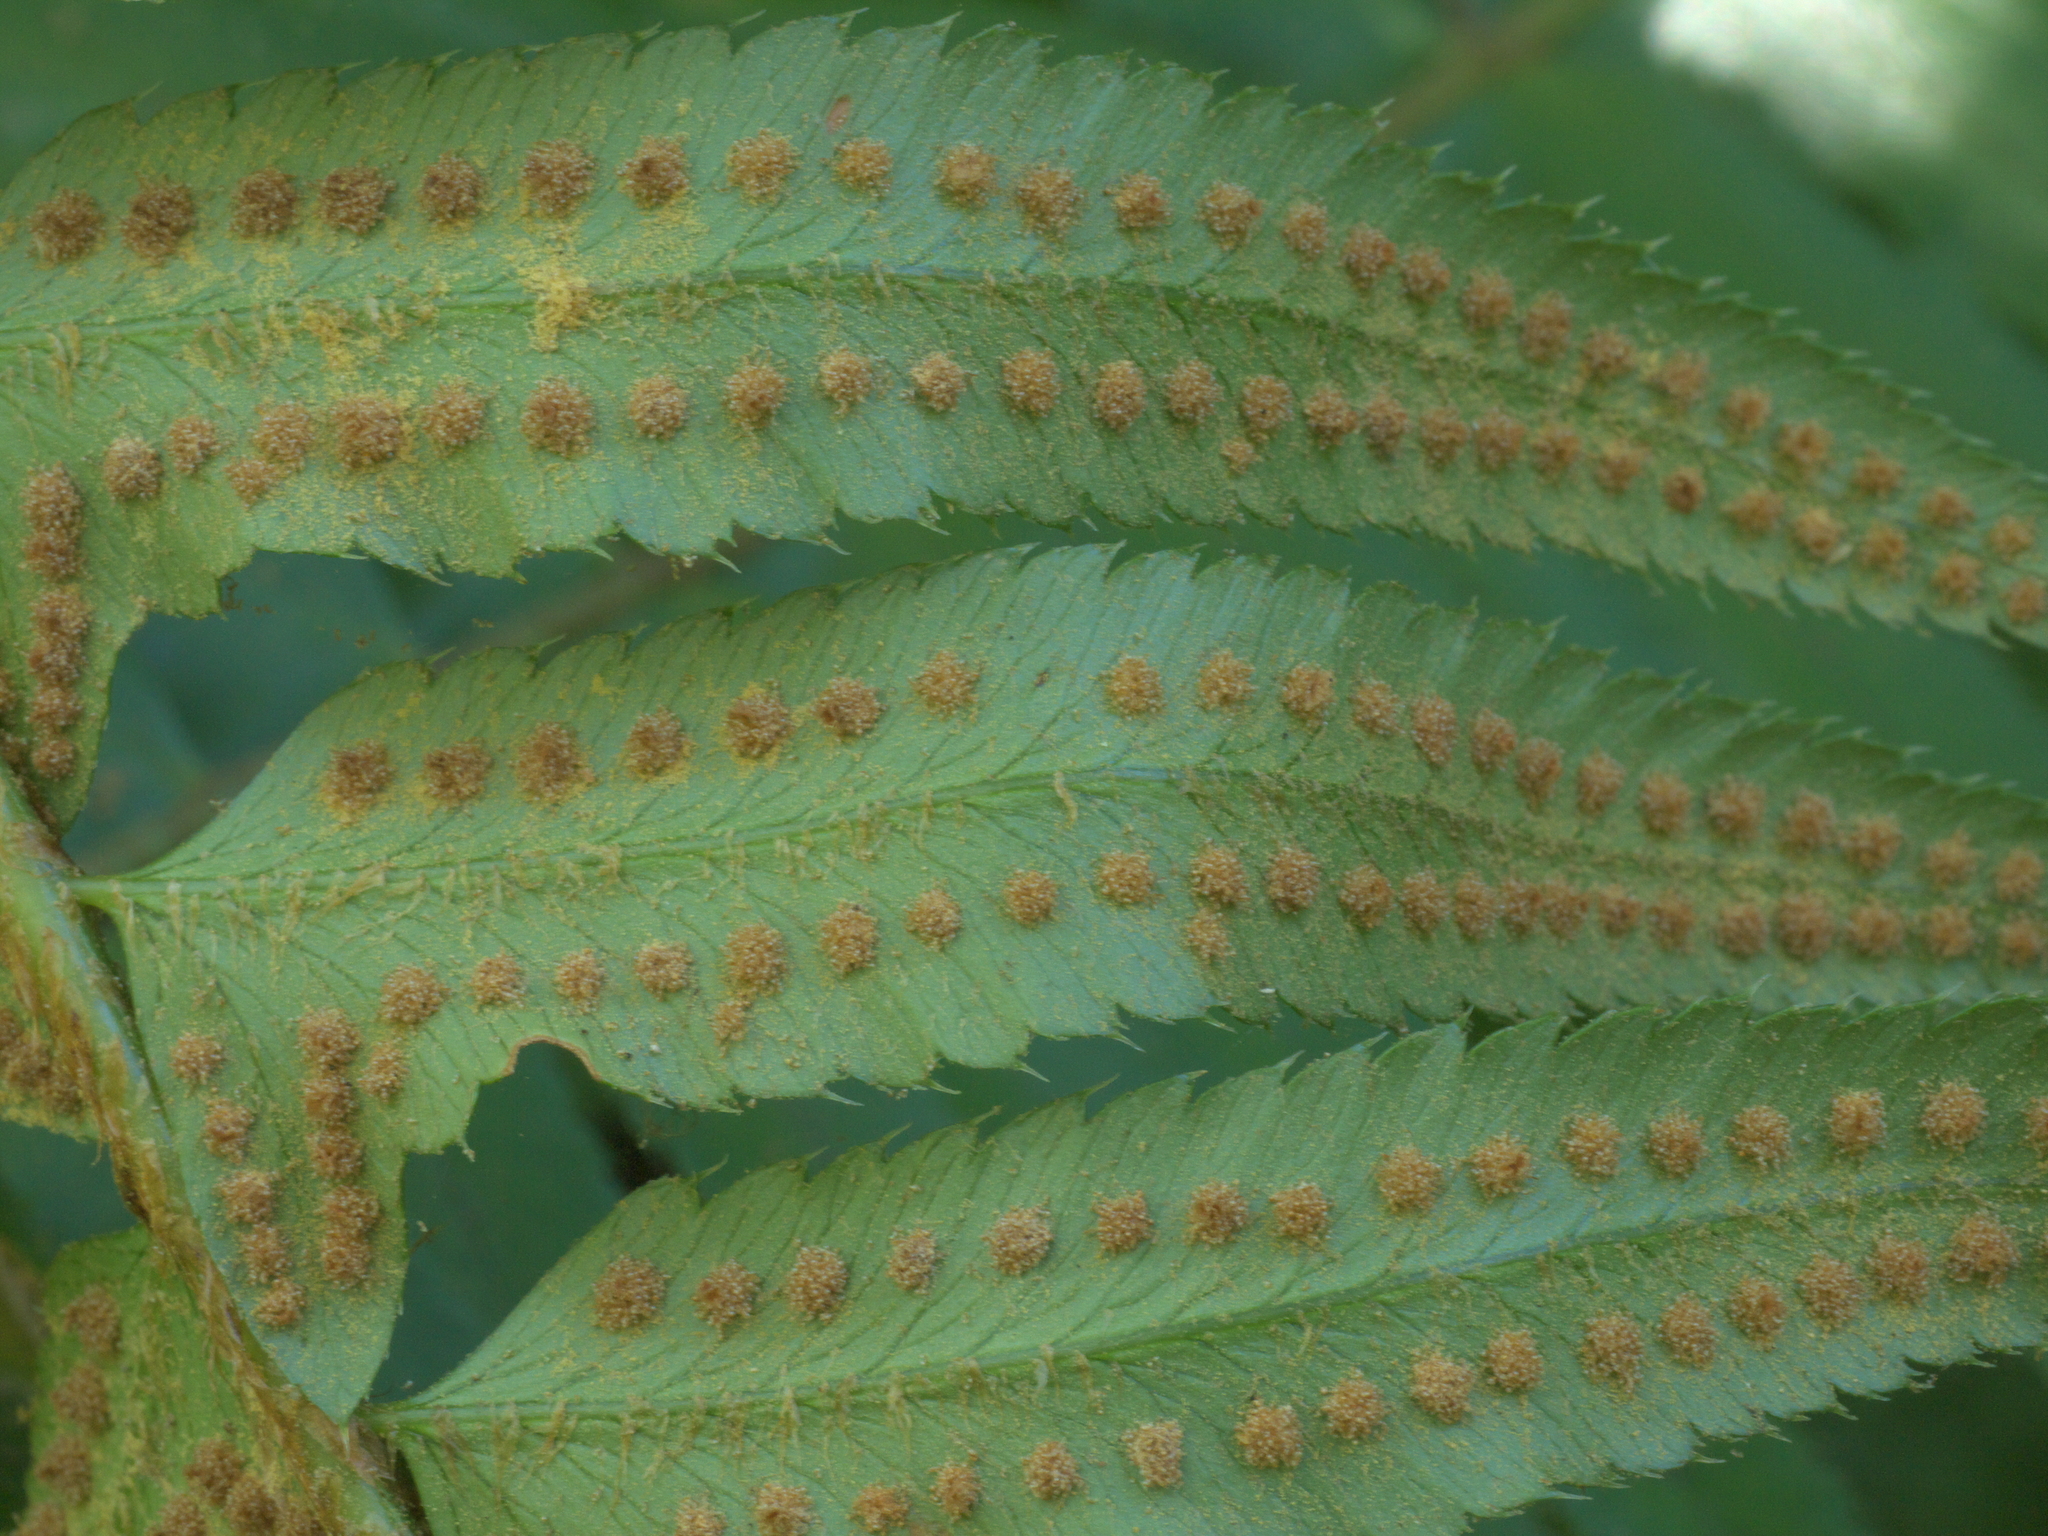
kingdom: Plantae
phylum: Tracheophyta
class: Polypodiopsida
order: Polypodiales
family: Dryopteridaceae
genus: Polystichum
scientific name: Polystichum munitum
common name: Western sword-fern
